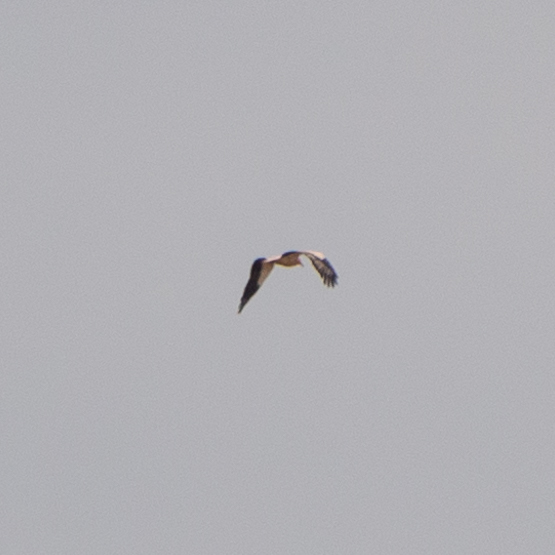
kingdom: Animalia
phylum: Chordata
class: Aves
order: Accipitriformes
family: Accipitridae
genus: Neophron
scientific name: Neophron percnopterus
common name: Egyptian vulture
